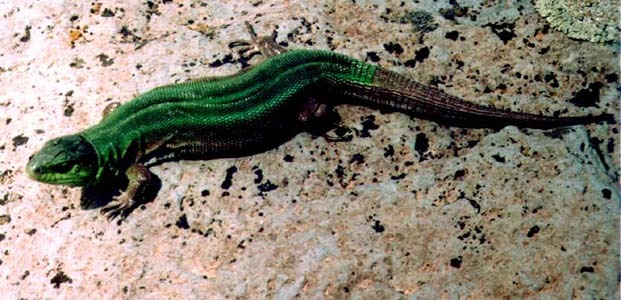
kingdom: Animalia
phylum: Chordata
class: Squamata
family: Lacertidae
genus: Lacerta
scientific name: Lacerta agilis
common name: Sand lizard
